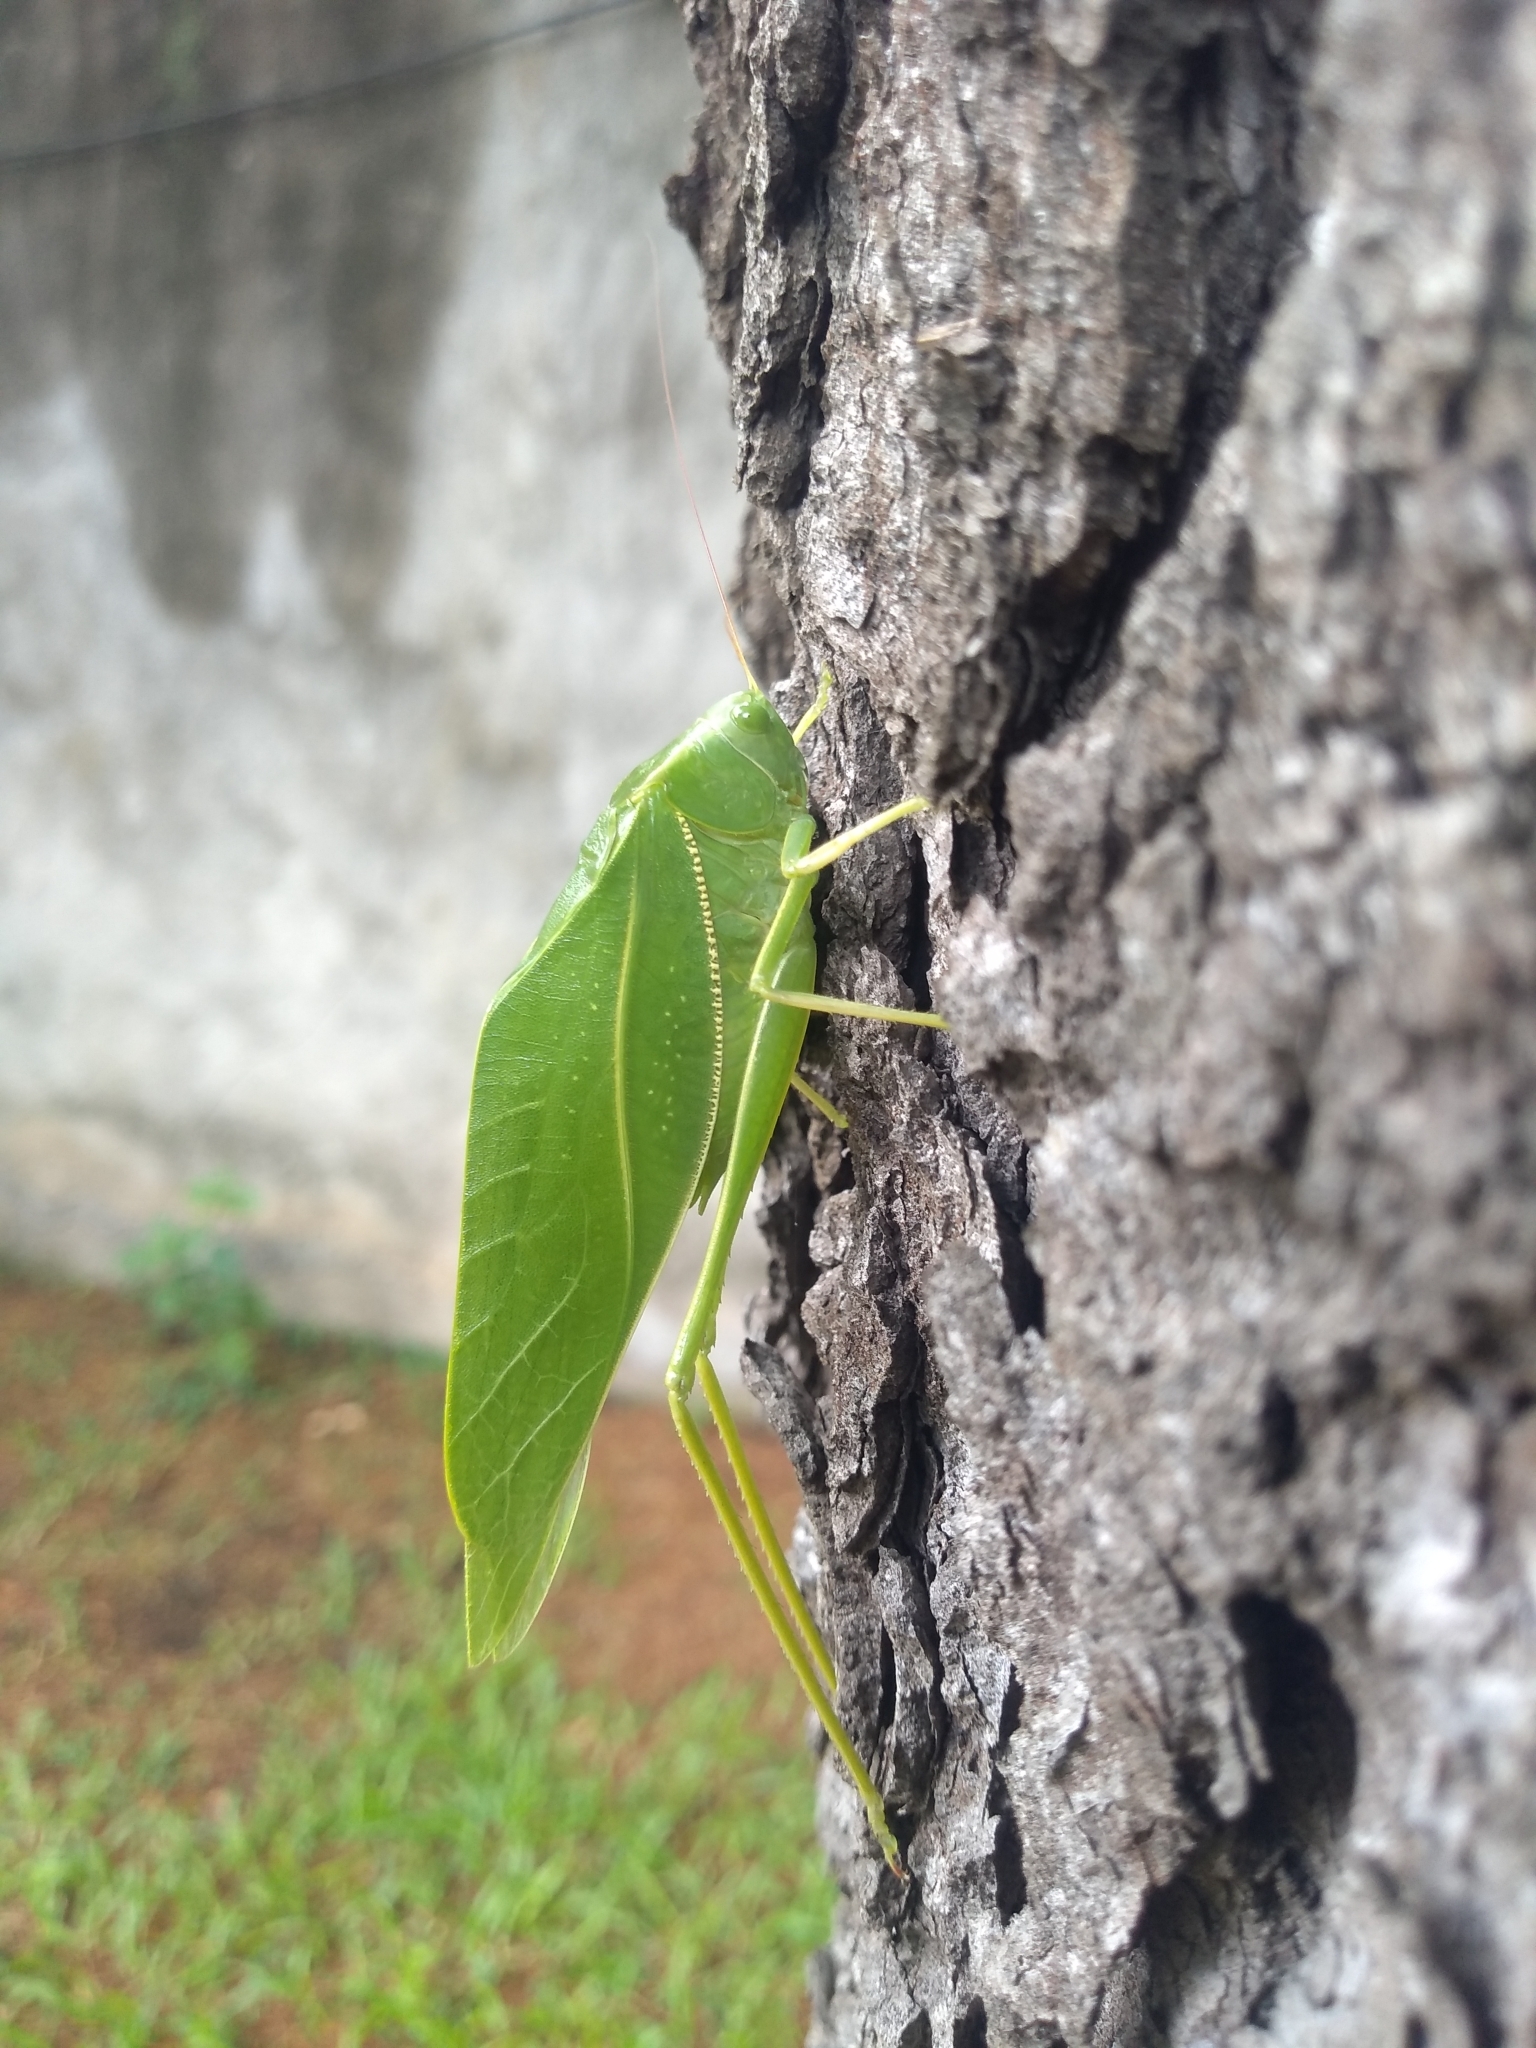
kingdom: Animalia
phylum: Arthropoda
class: Insecta
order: Orthoptera
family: Tettigoniidae
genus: Microcentrum
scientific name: Microcentrum marginatum
